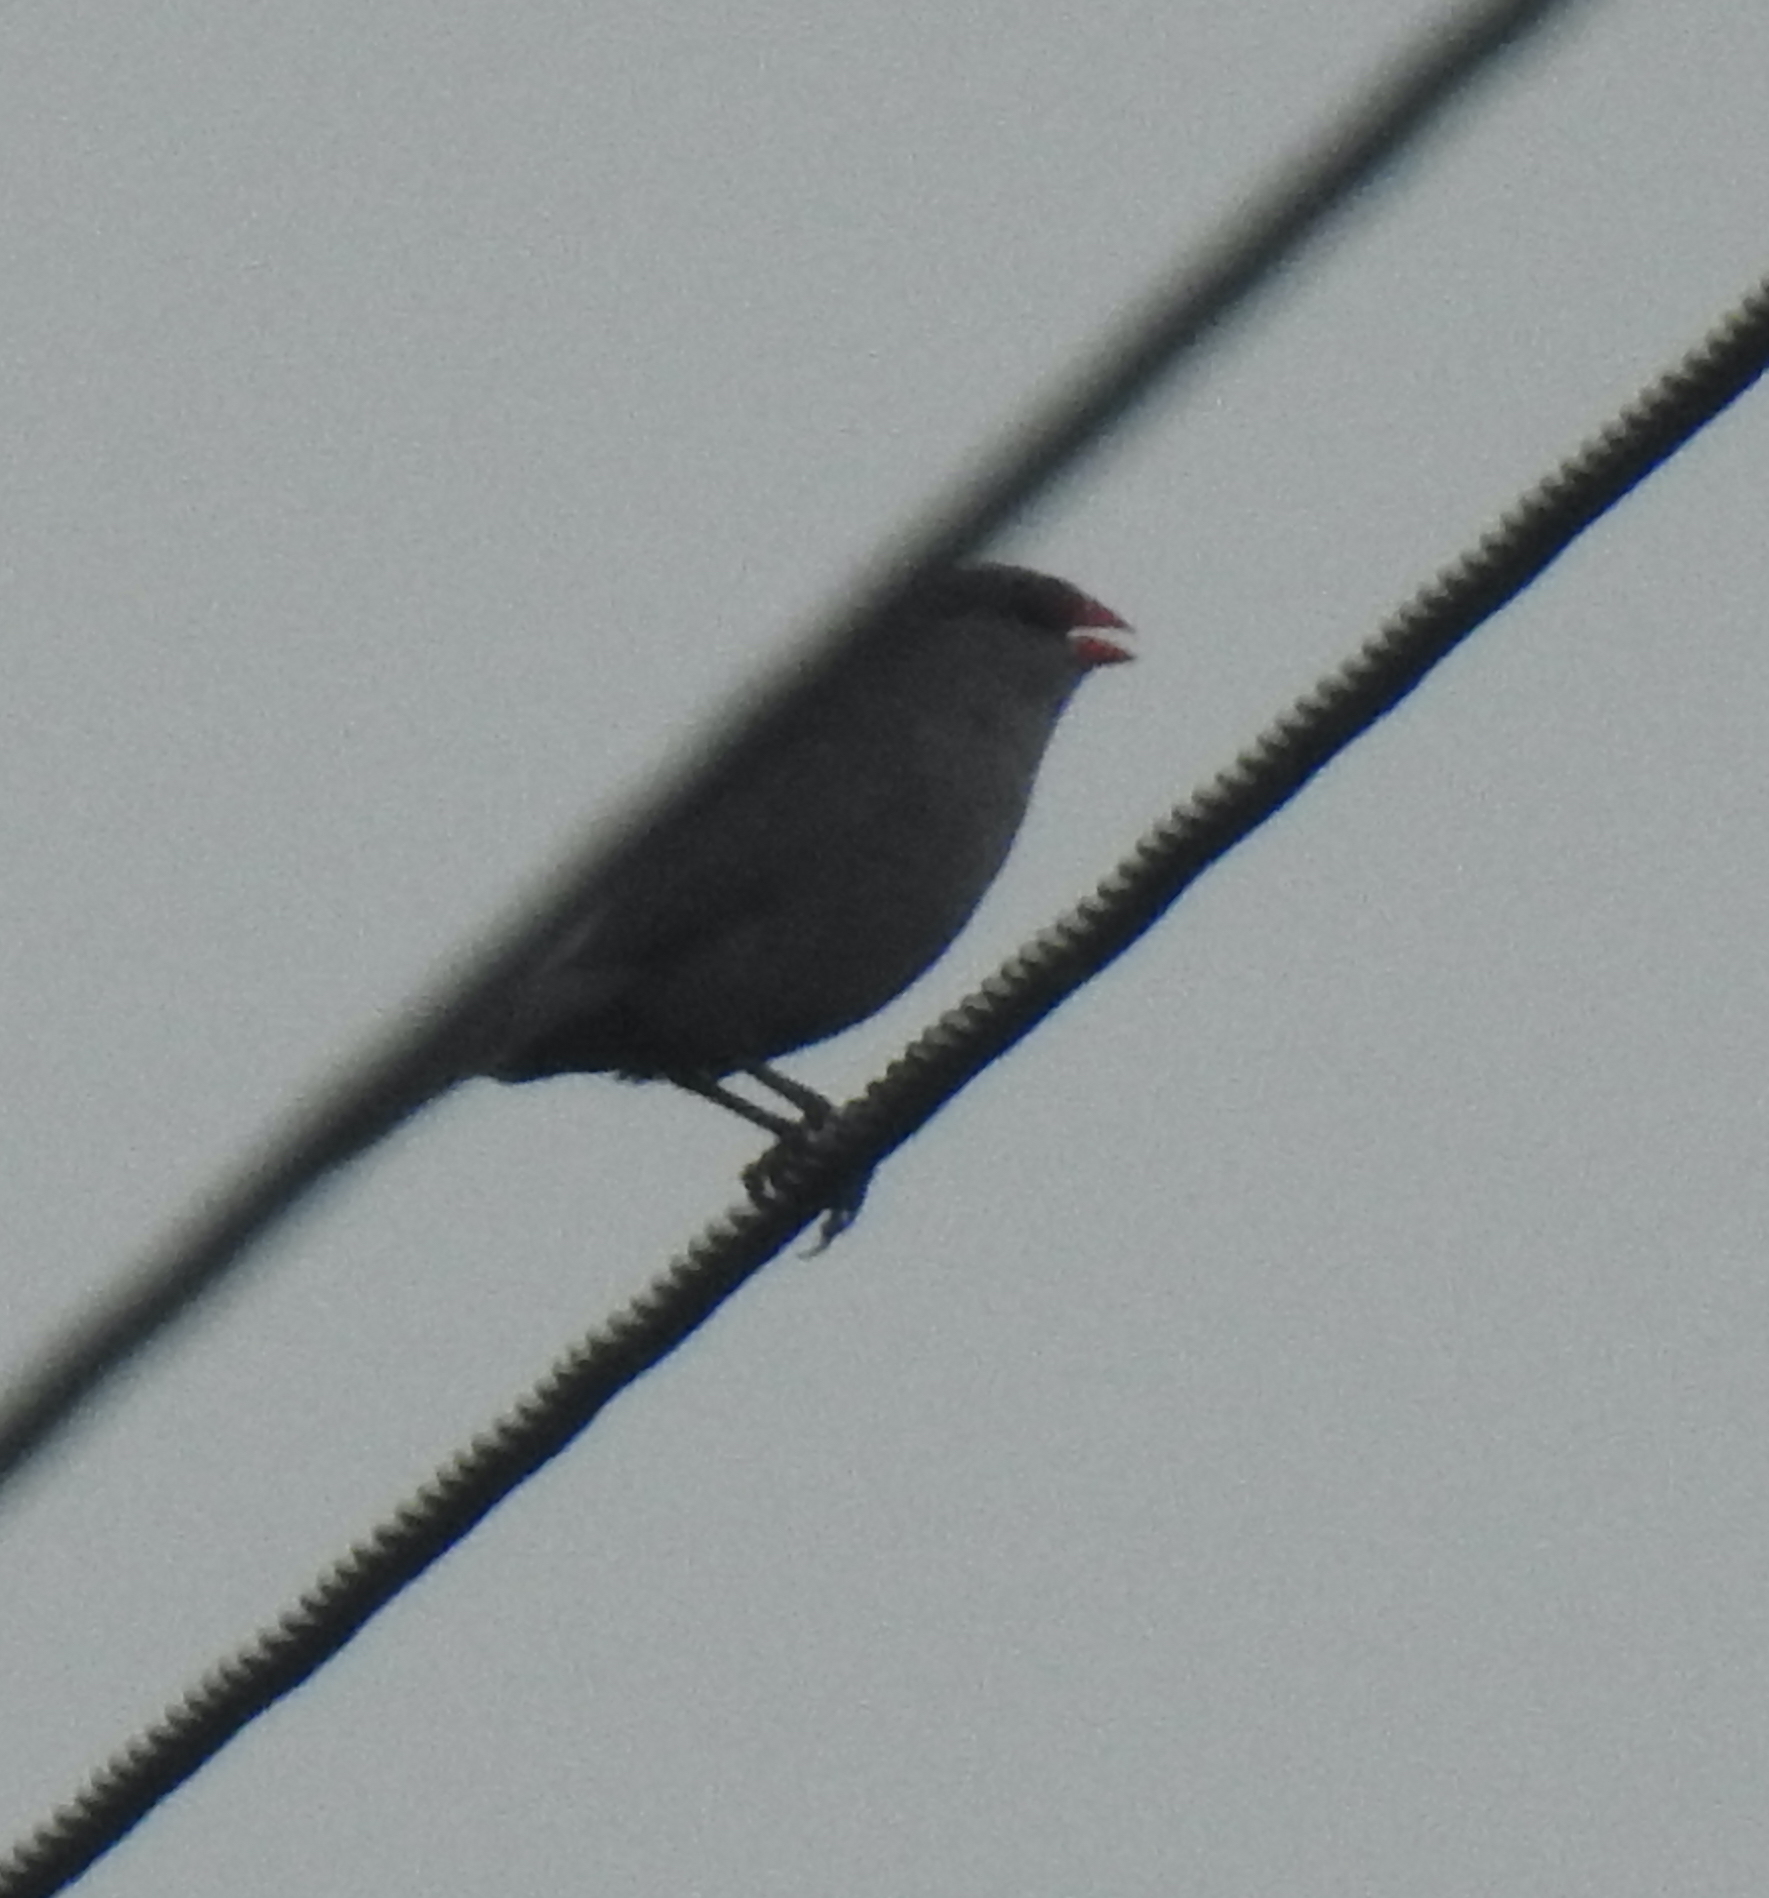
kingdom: Animalia
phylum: Chordata
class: Aves
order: Passeriformes
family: Estrildidae
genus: Estrilda
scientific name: Estrilda astrild
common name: Common waxbill
